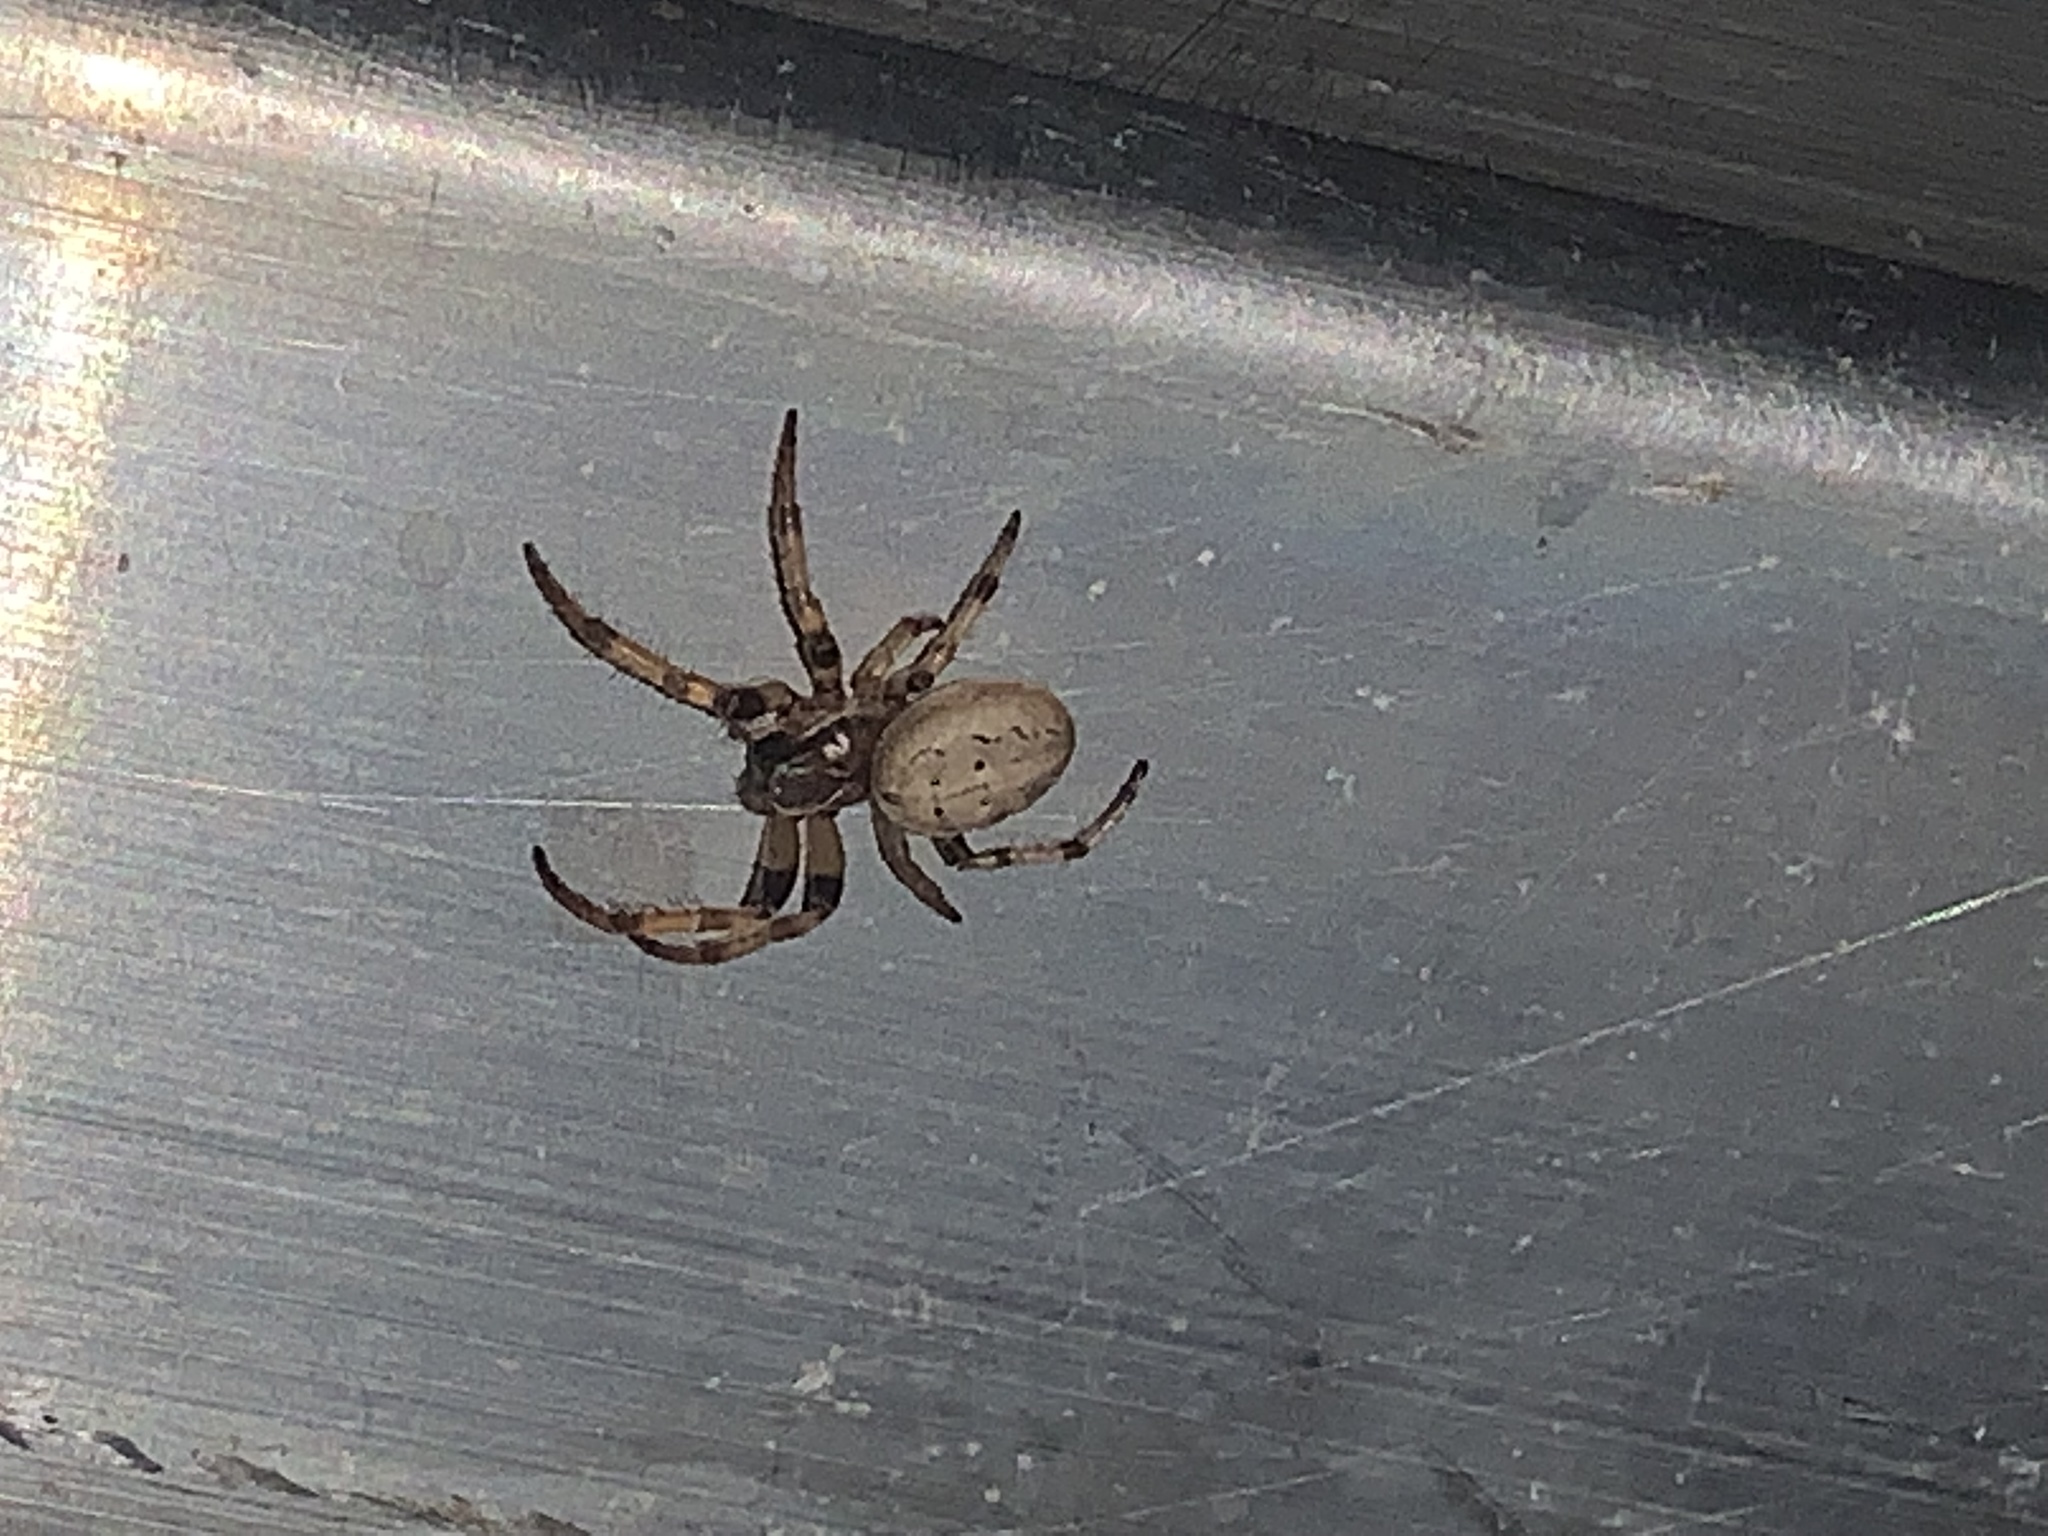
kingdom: Animalia
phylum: Arthropoda
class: Arachnida
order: Araneae
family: Araneidae
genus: Larinioides
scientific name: Larinioides cornutus
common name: Furrow orbweaver
